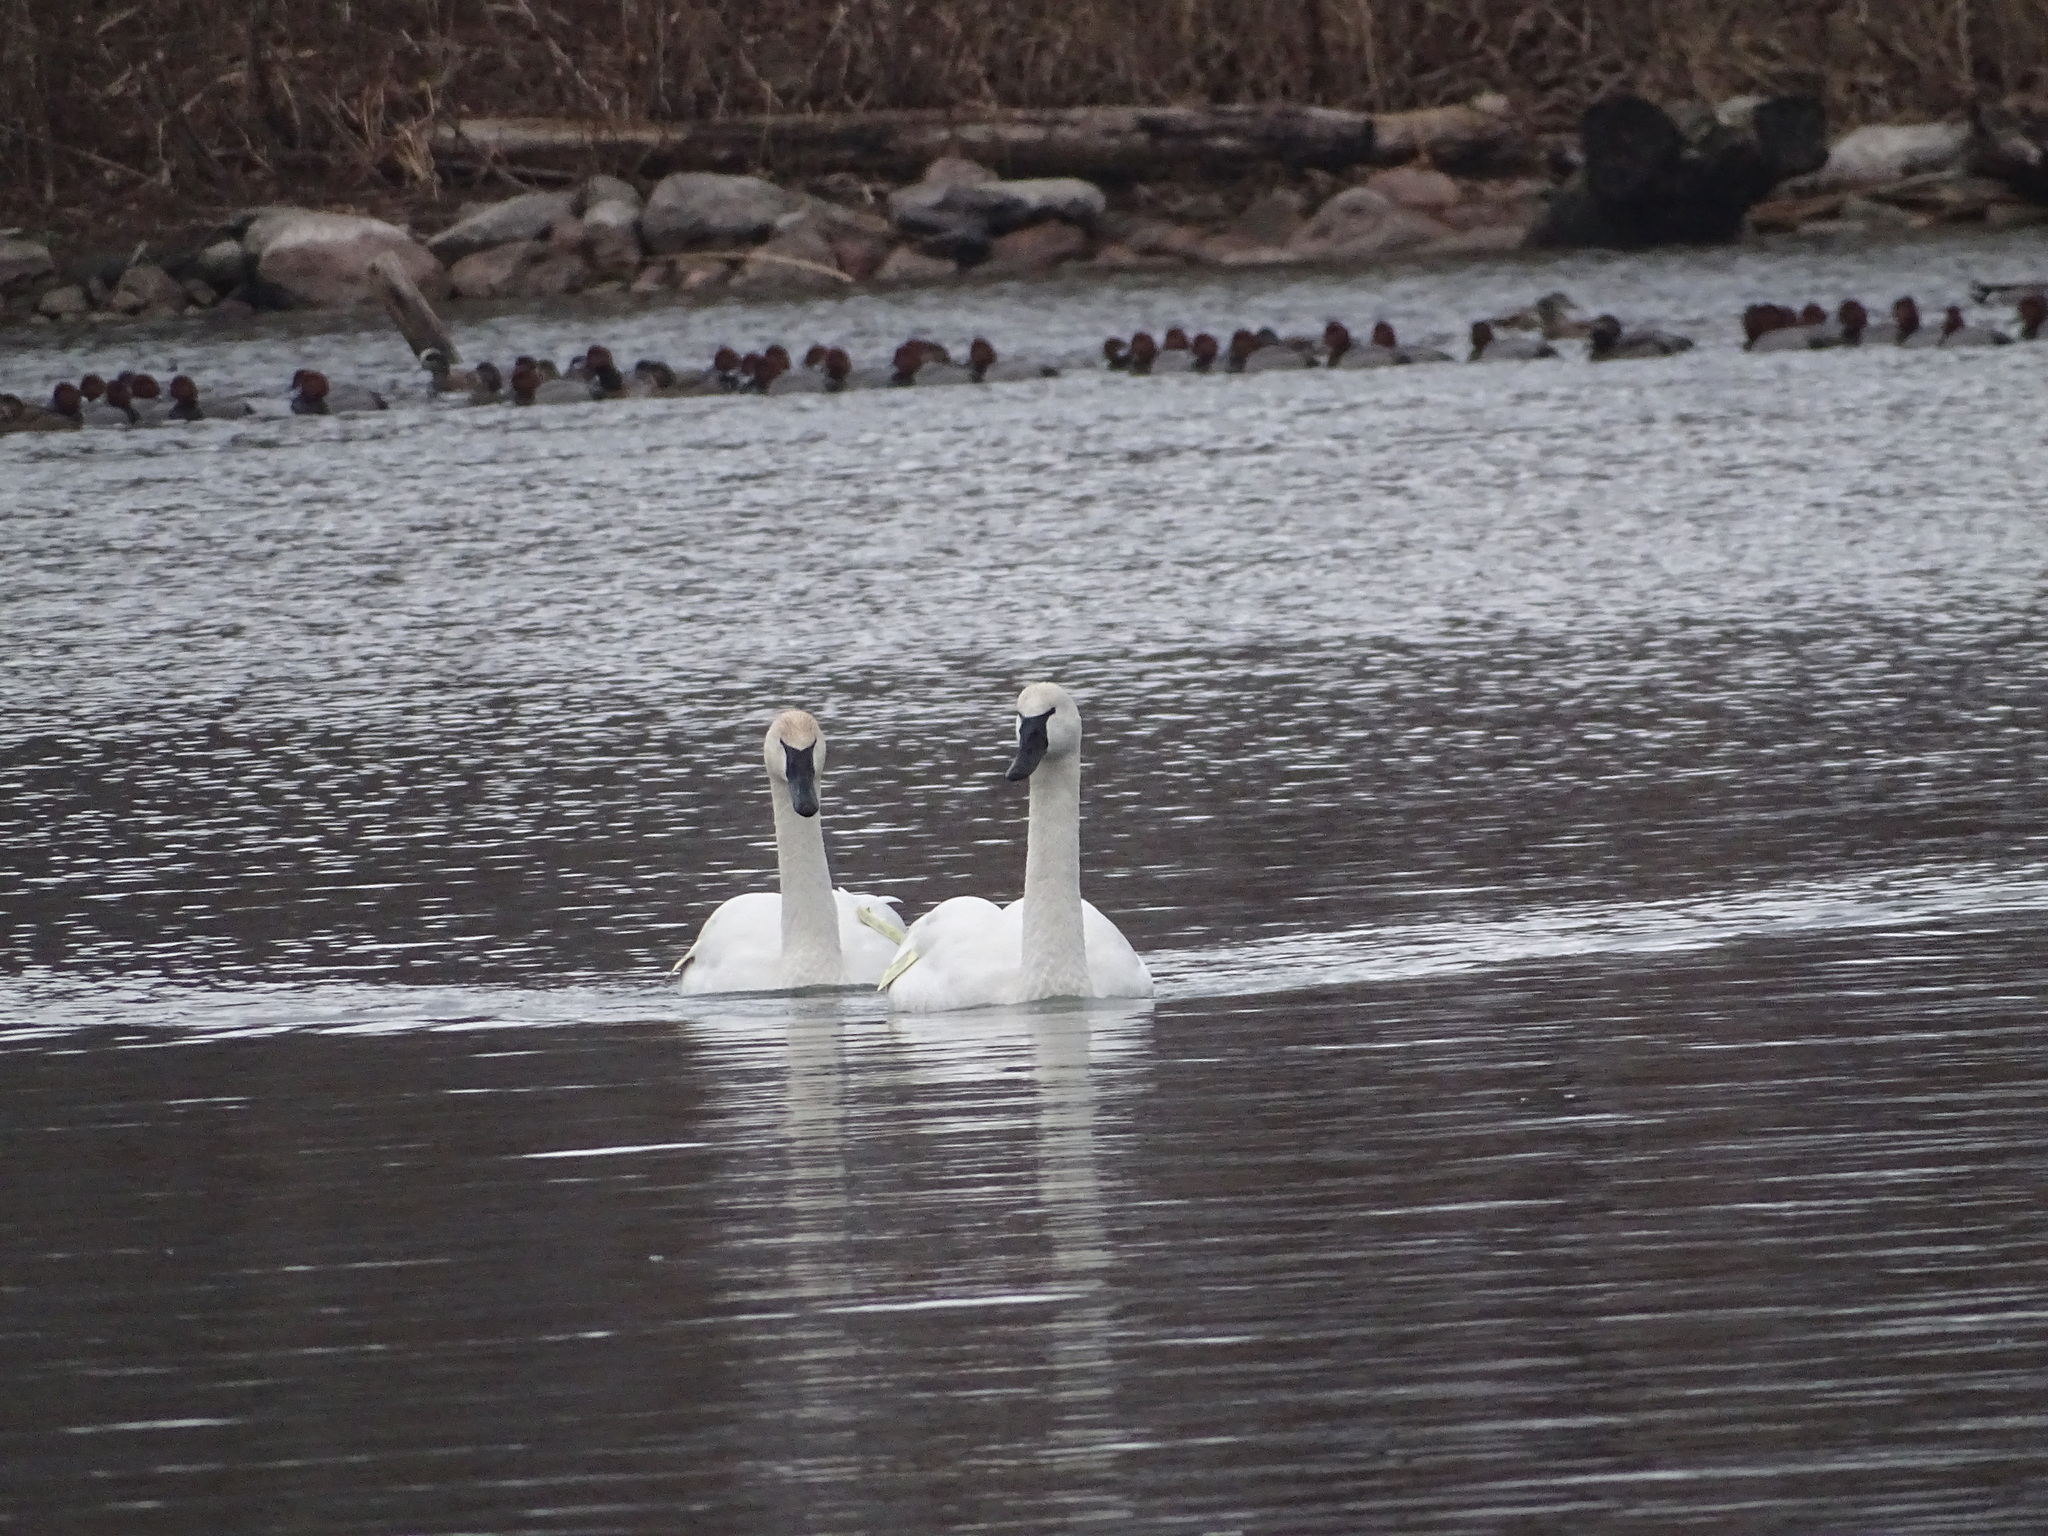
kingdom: Animalia
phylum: Chordata
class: Aves
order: Anseriformes
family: Anatidae
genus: Cygnus
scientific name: Cygnus buccinator
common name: Trumpeter swan
